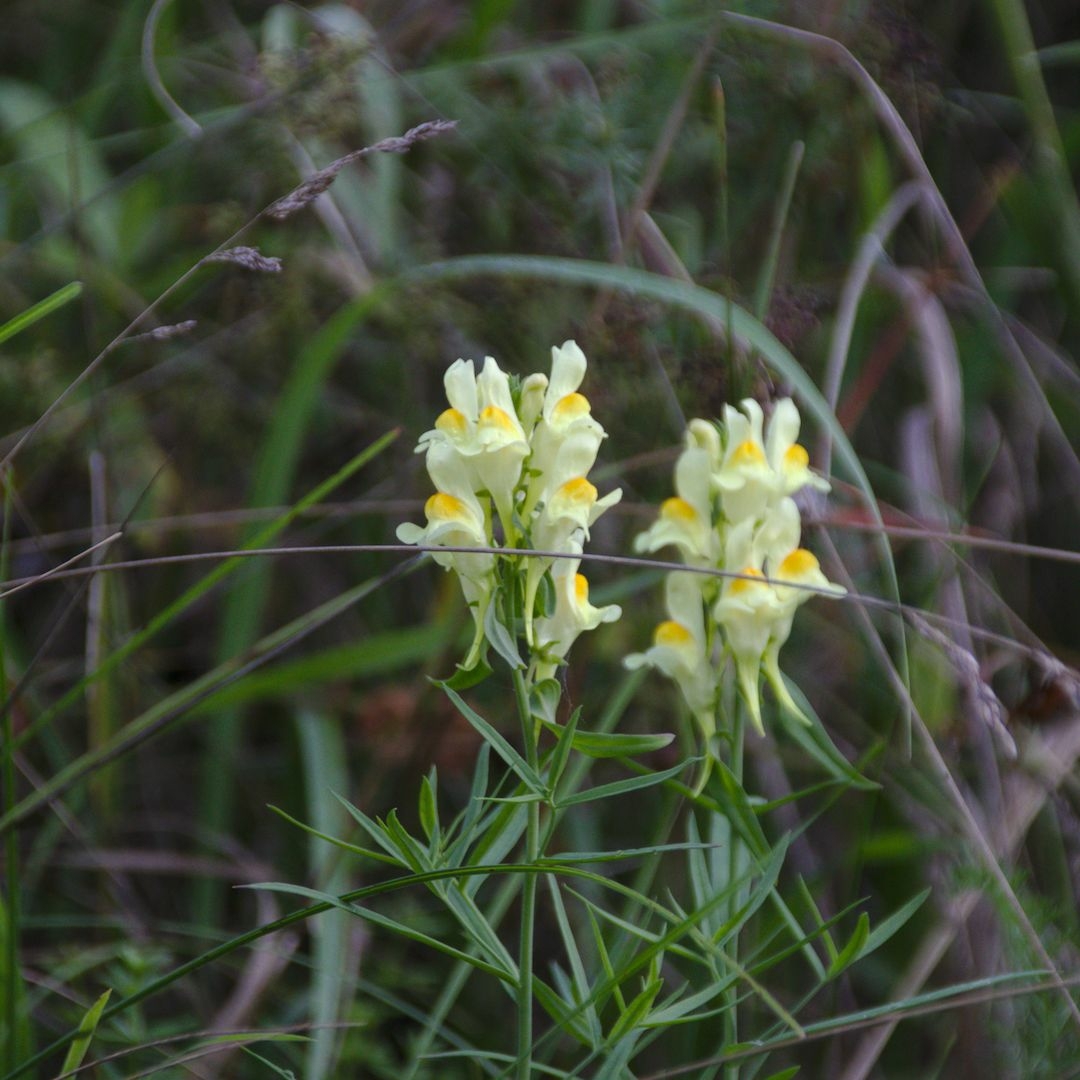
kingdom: Plantae
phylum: Tracheophyta
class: Magnoliopsida
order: Lamiales
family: Plantaginaceae
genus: Linaria
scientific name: Linaria vulgaris
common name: Butter and eggs
